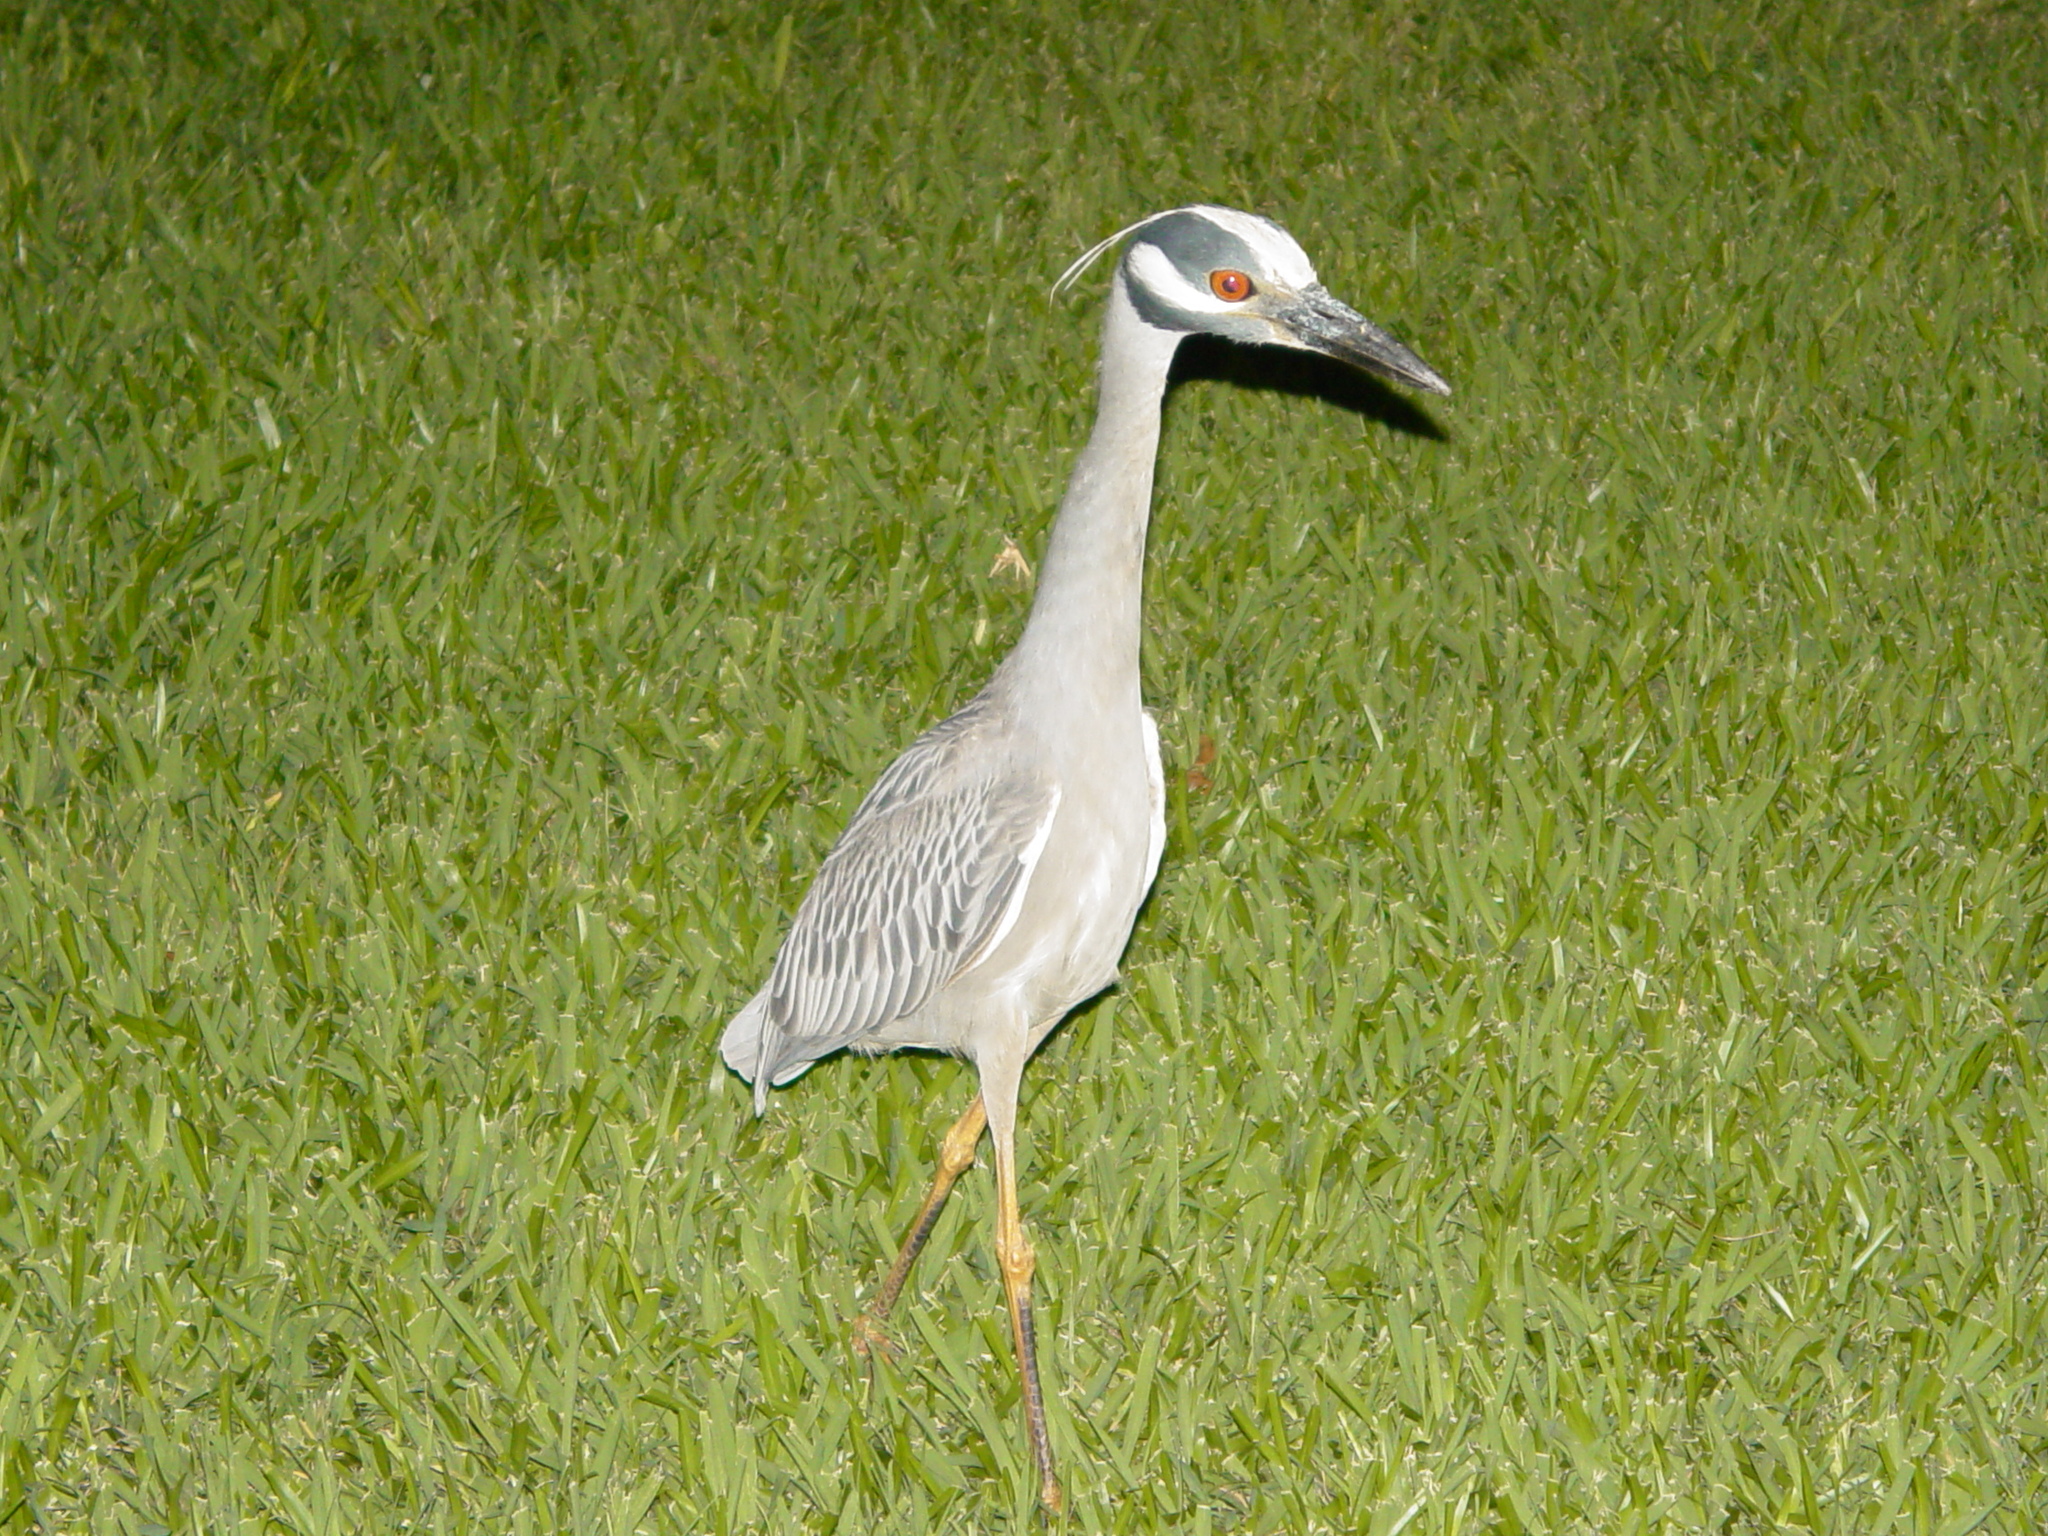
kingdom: Animalia
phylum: Chordata
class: Aves
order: Pelecaniformes
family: Ardeidae
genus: Nyctanassa
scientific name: Nyctanassa violacea
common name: Yellow-crowned night heron
